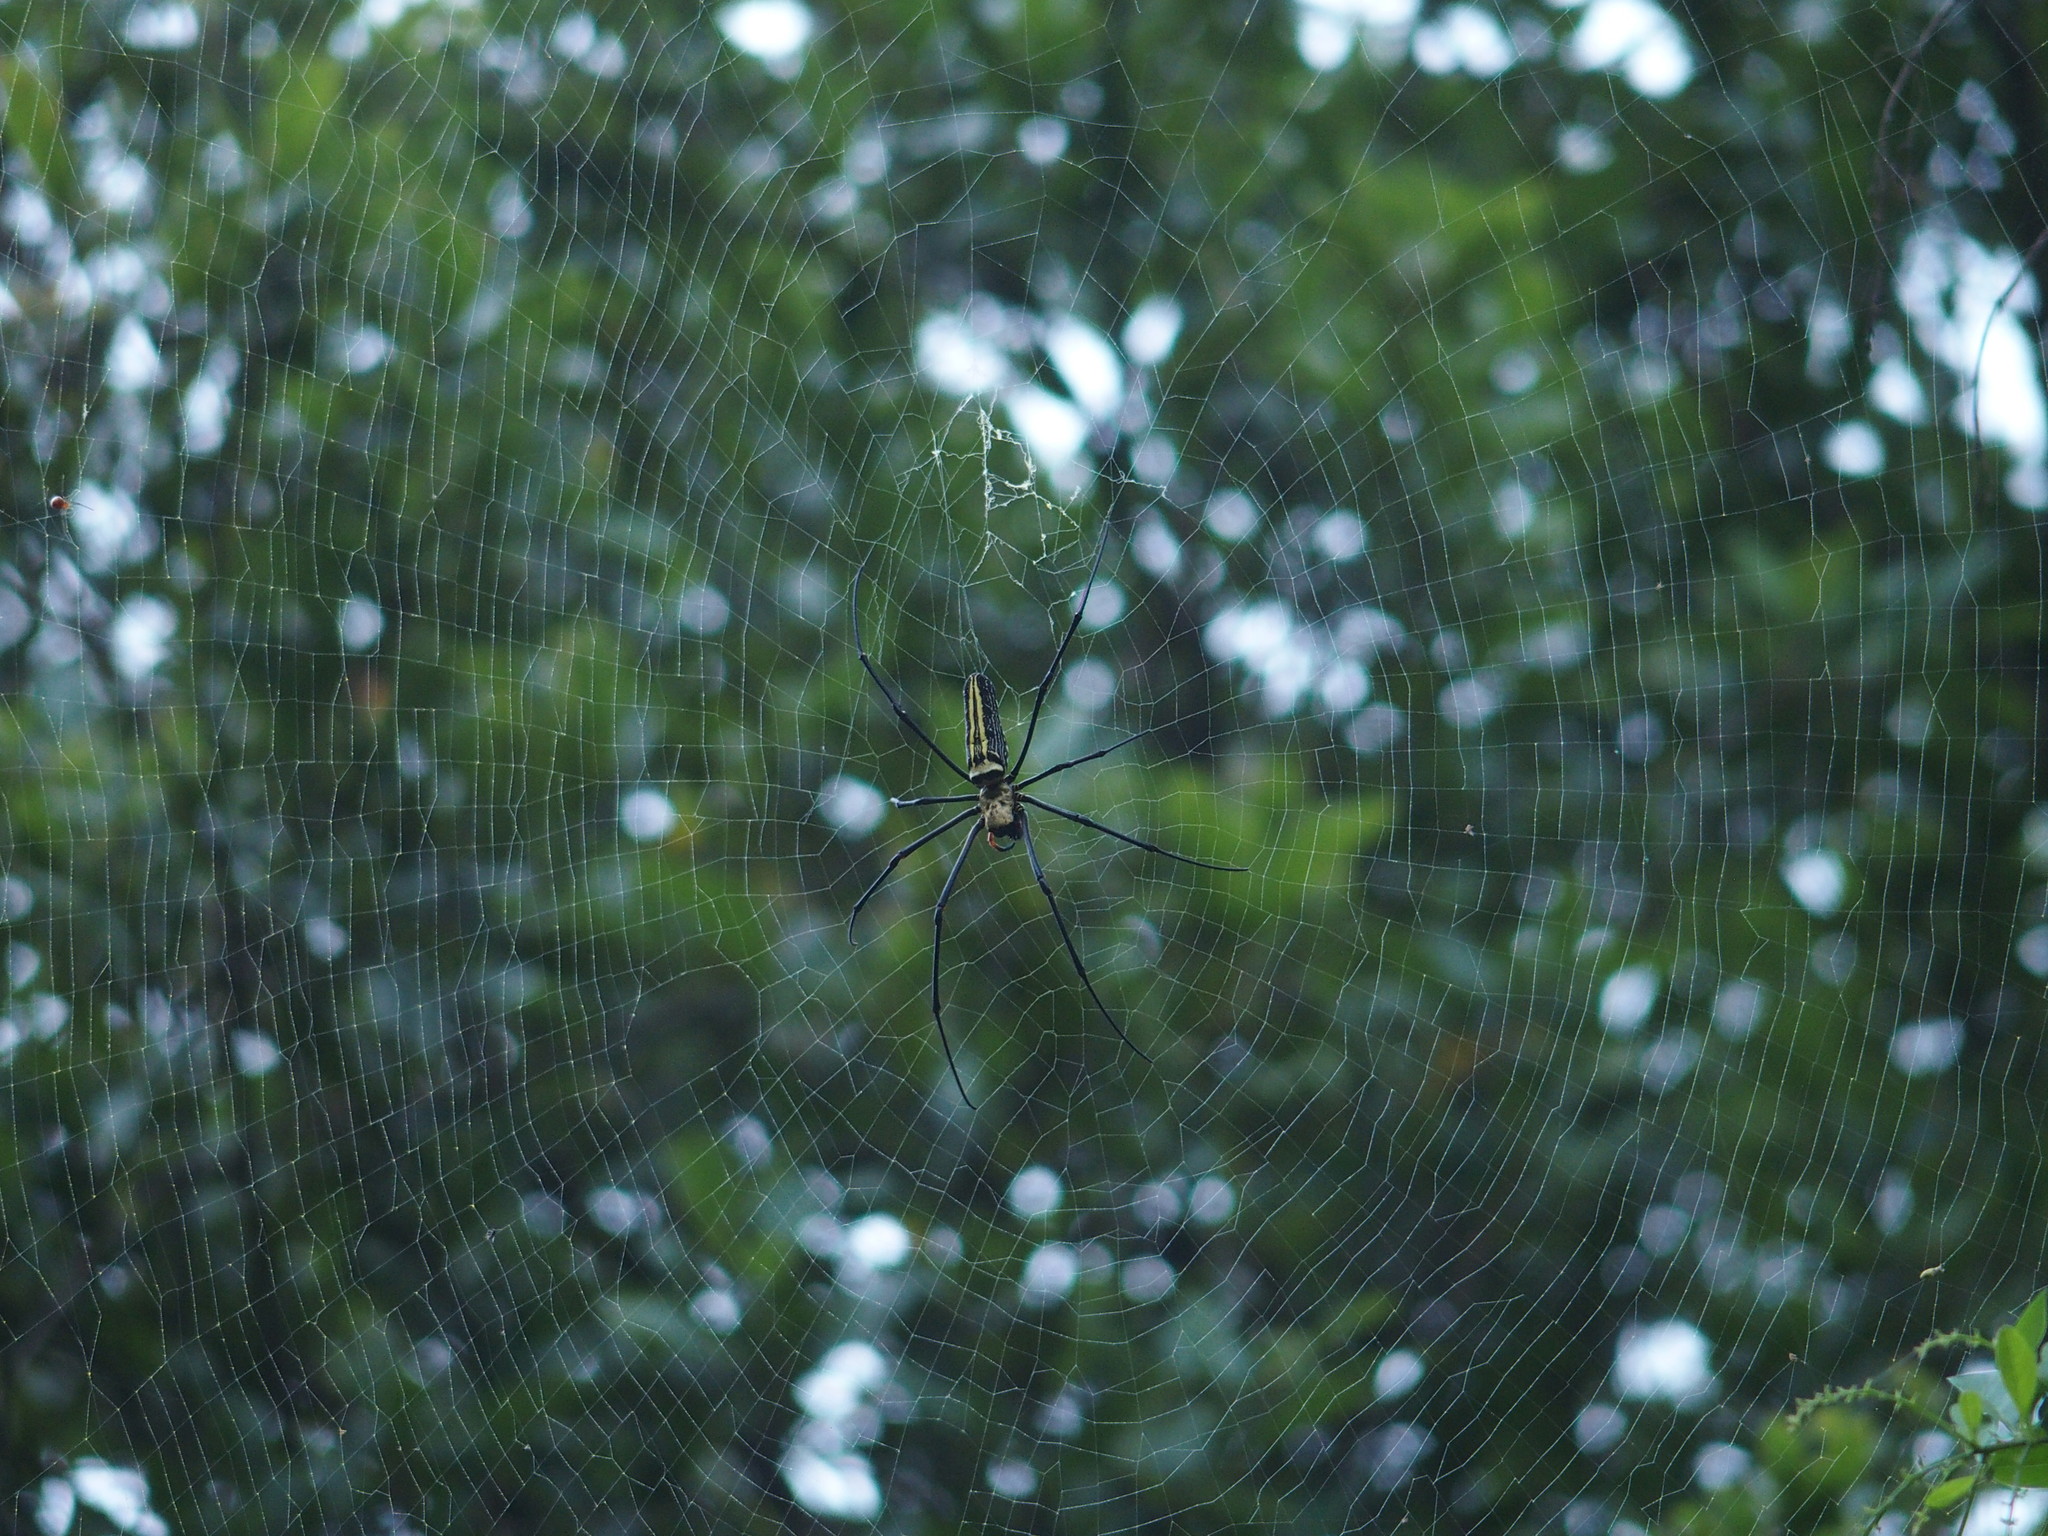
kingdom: Animalia
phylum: Arthropoda
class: Arachnida
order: Araneae
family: Araneidae
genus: Nephila
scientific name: Nephila pilipes
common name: Giant golden orb weaver
